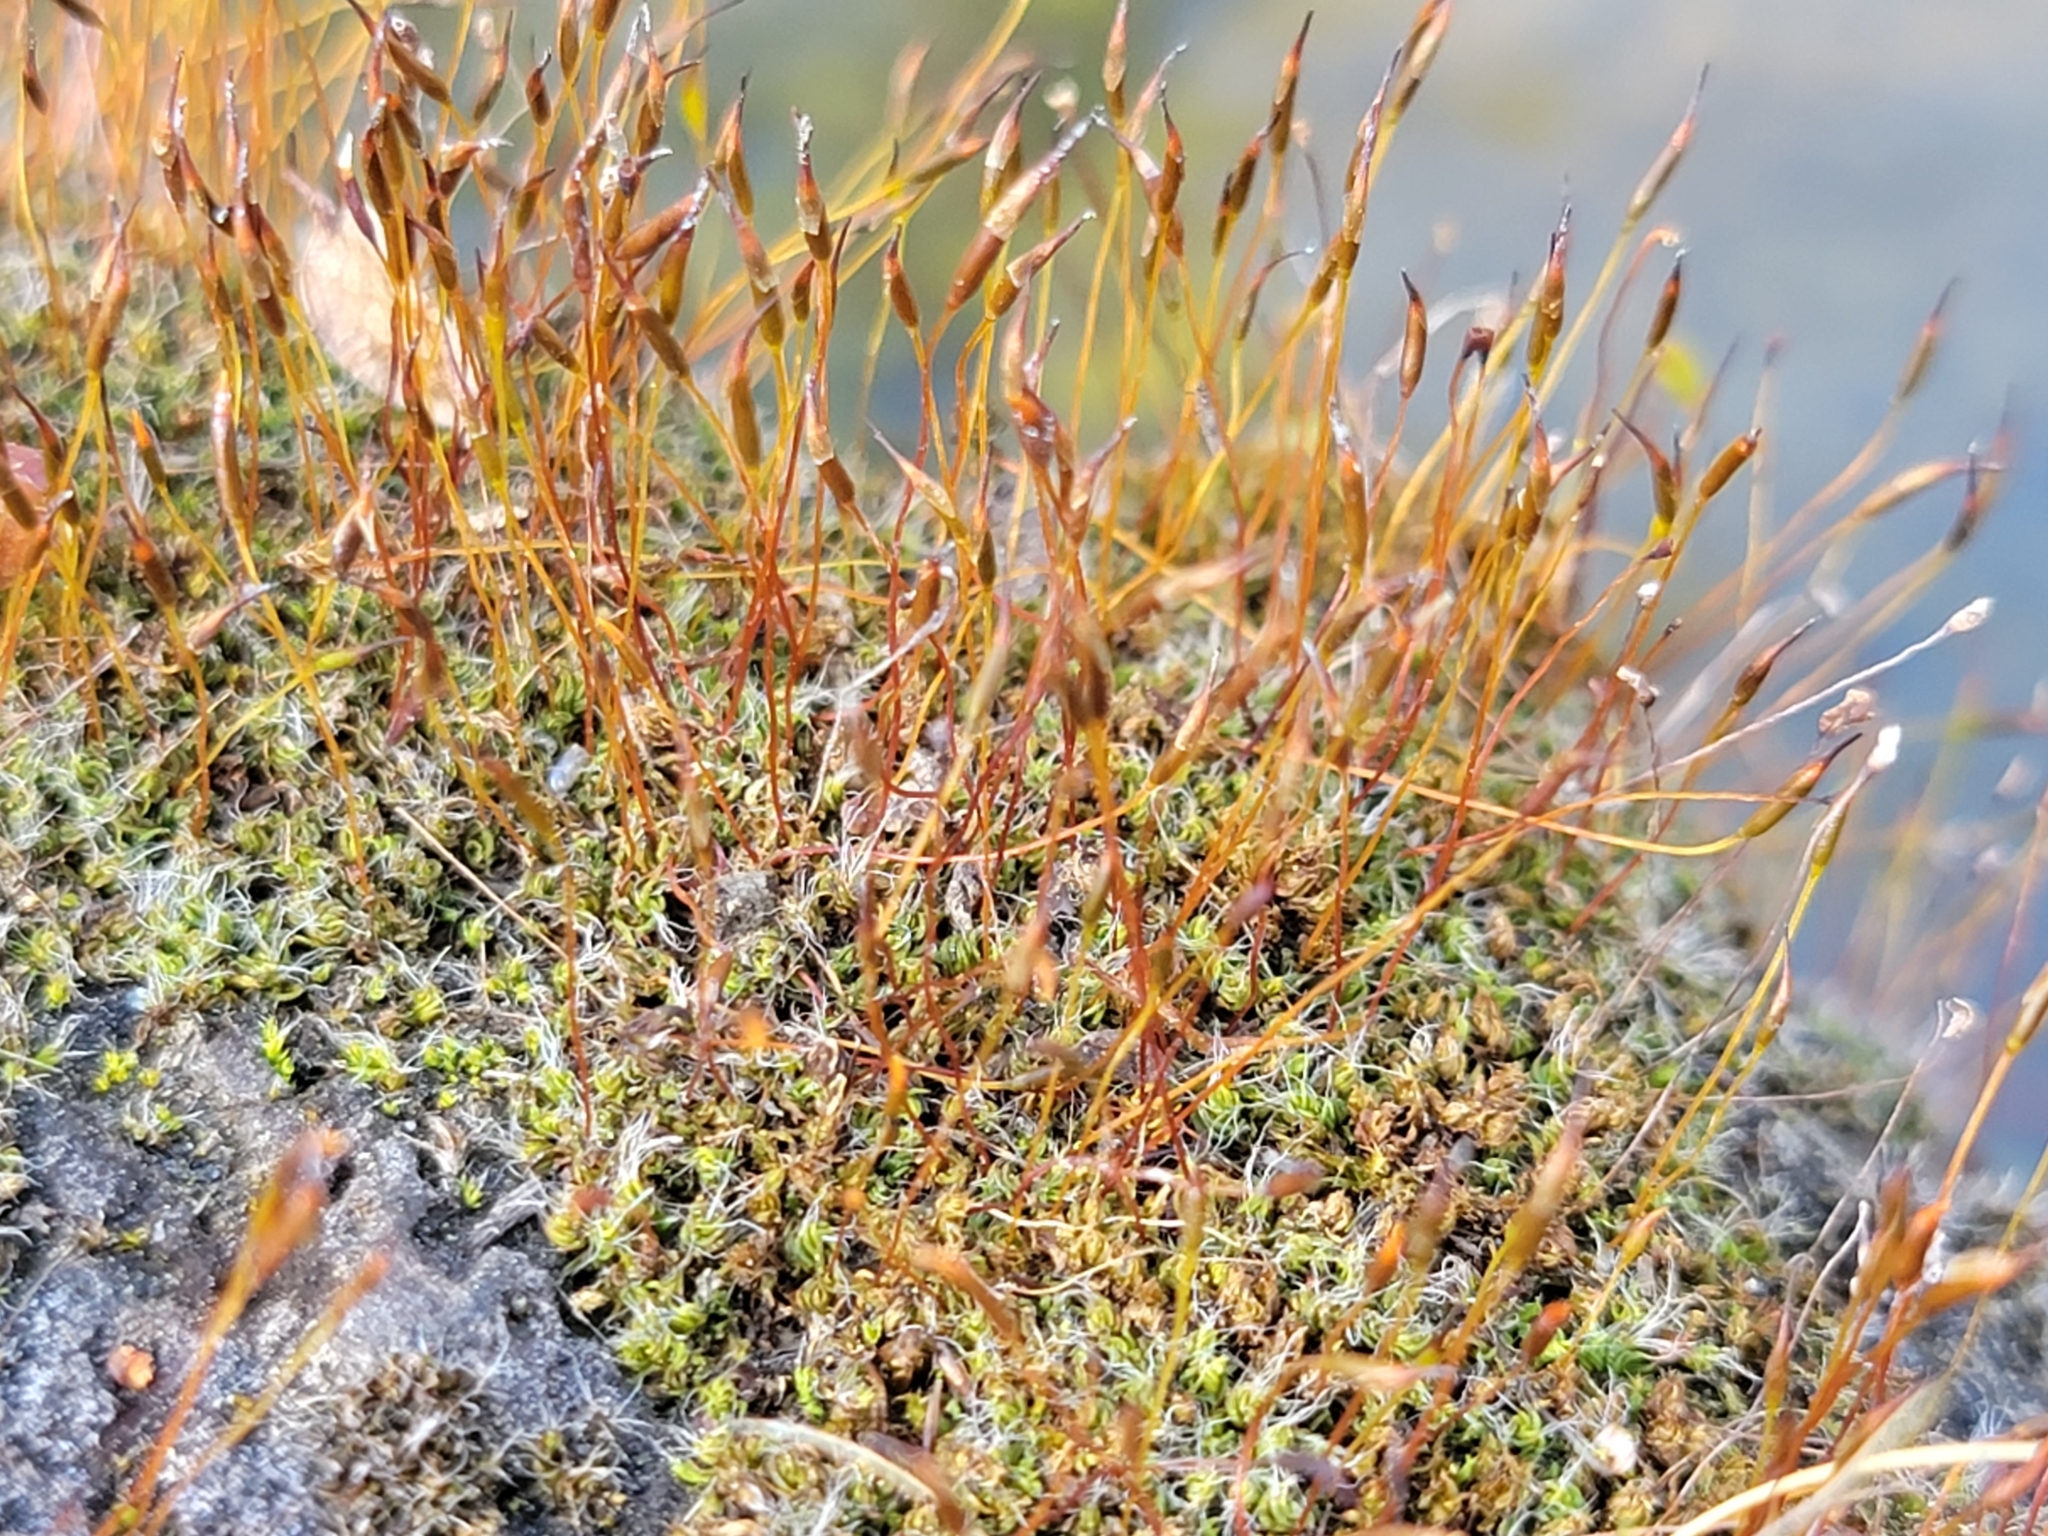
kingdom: Plantae
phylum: Bryophyta
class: Bryopsida
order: Pottiales
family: Pottiaceae
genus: Tortula
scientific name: Tortula muralis
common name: Wall screw-moss
